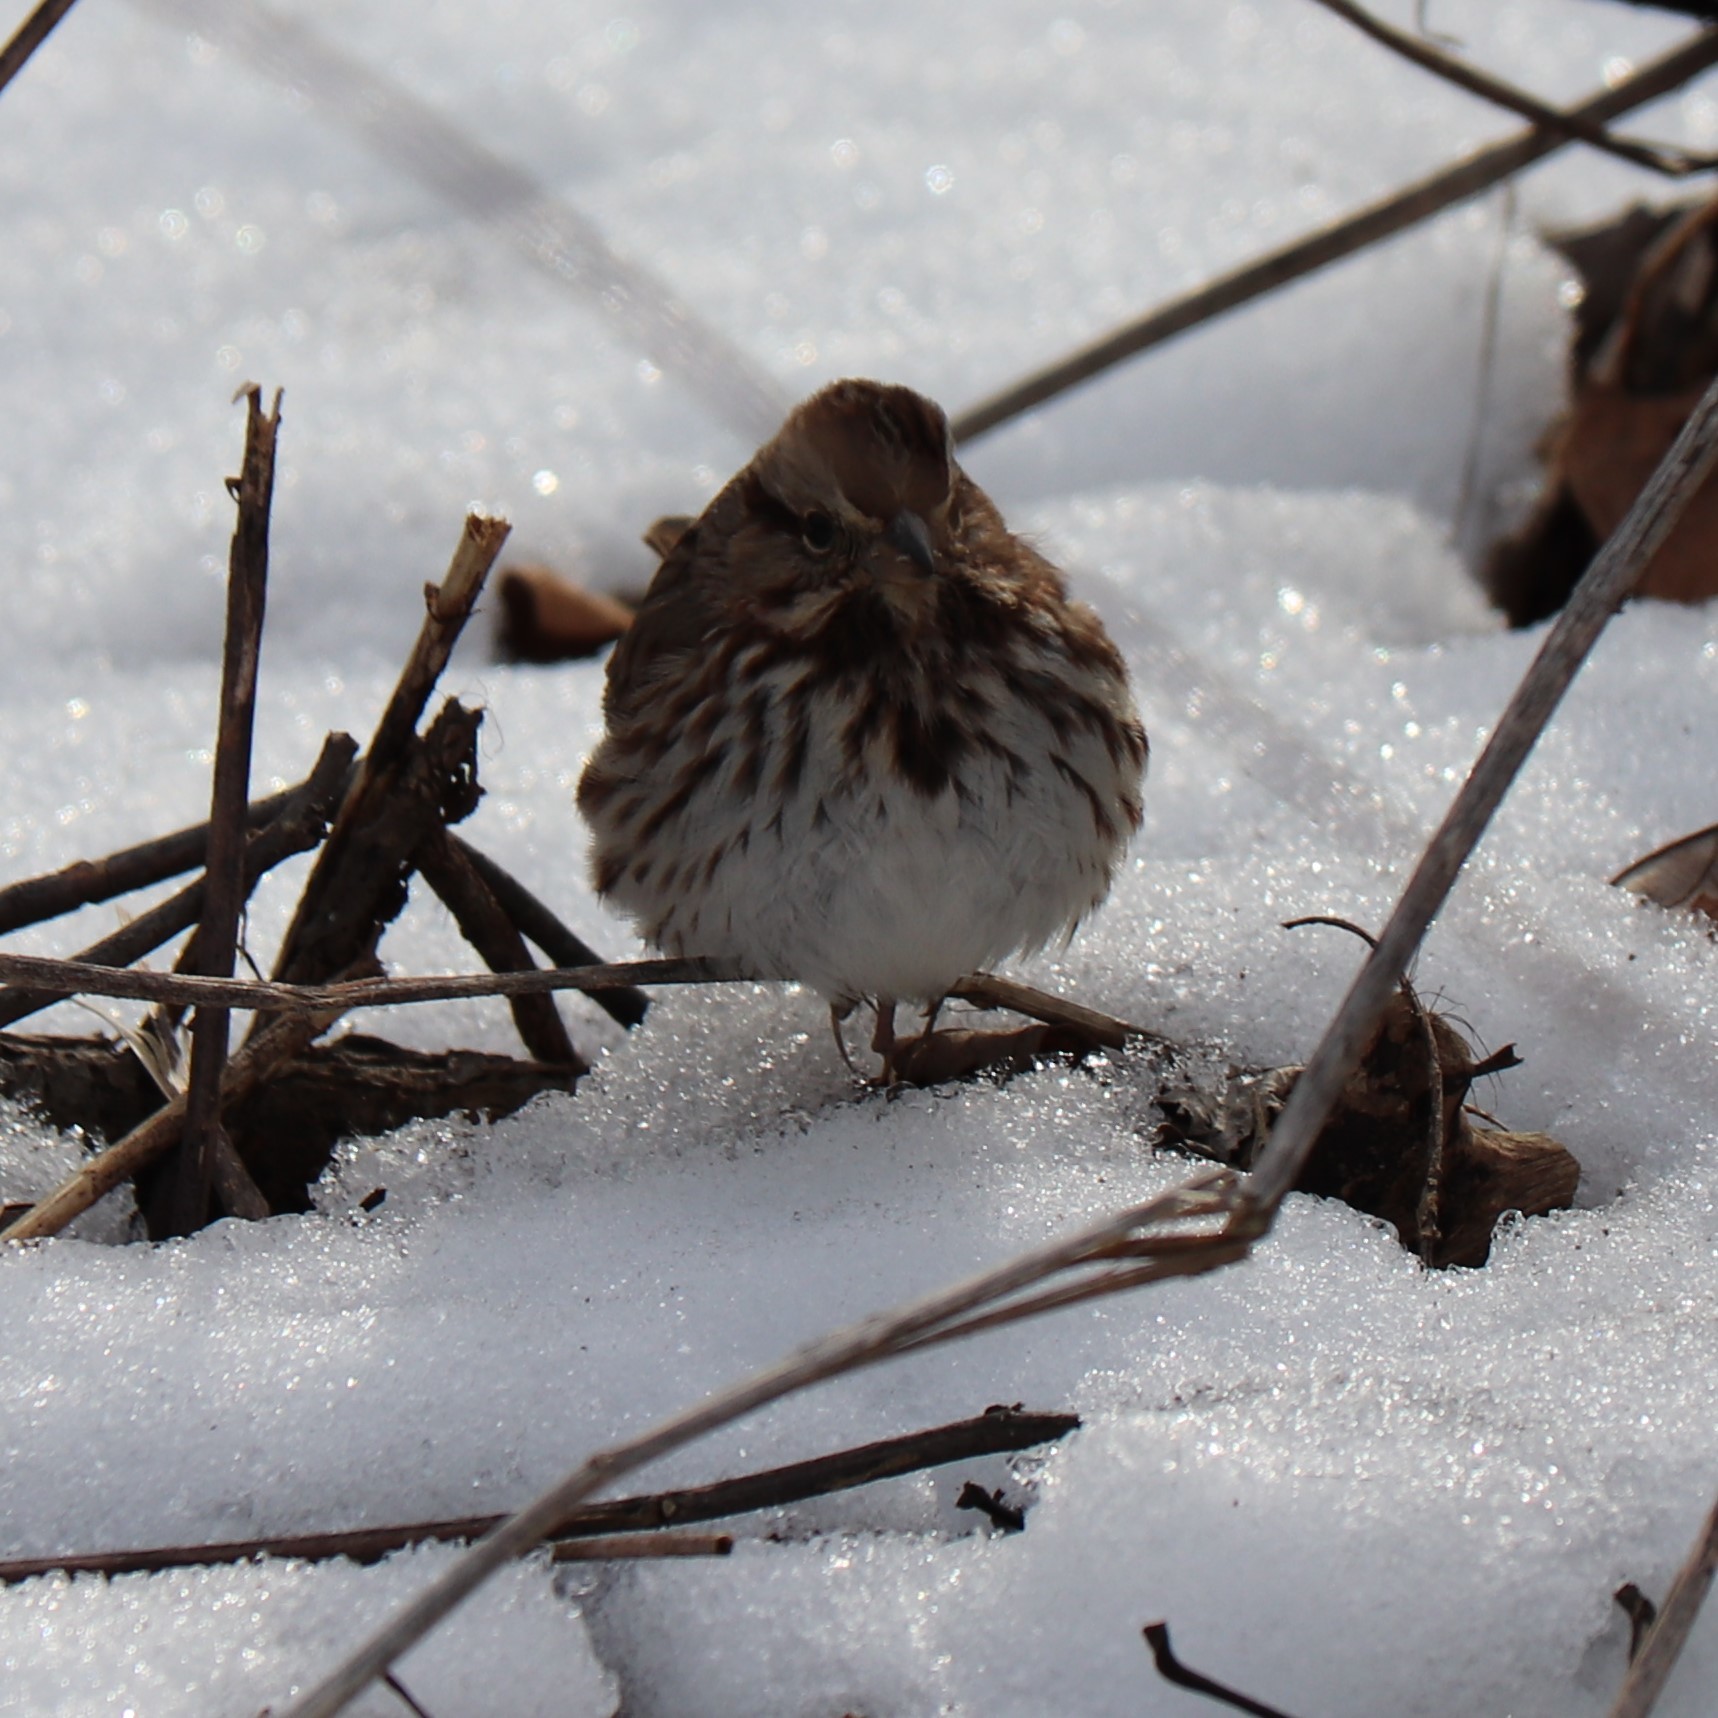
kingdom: Animalia
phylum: Chordata
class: Aves
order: Passeriformes
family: Passerellidae
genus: Melospiza
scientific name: Melospiza melodia
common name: Song sparrow
